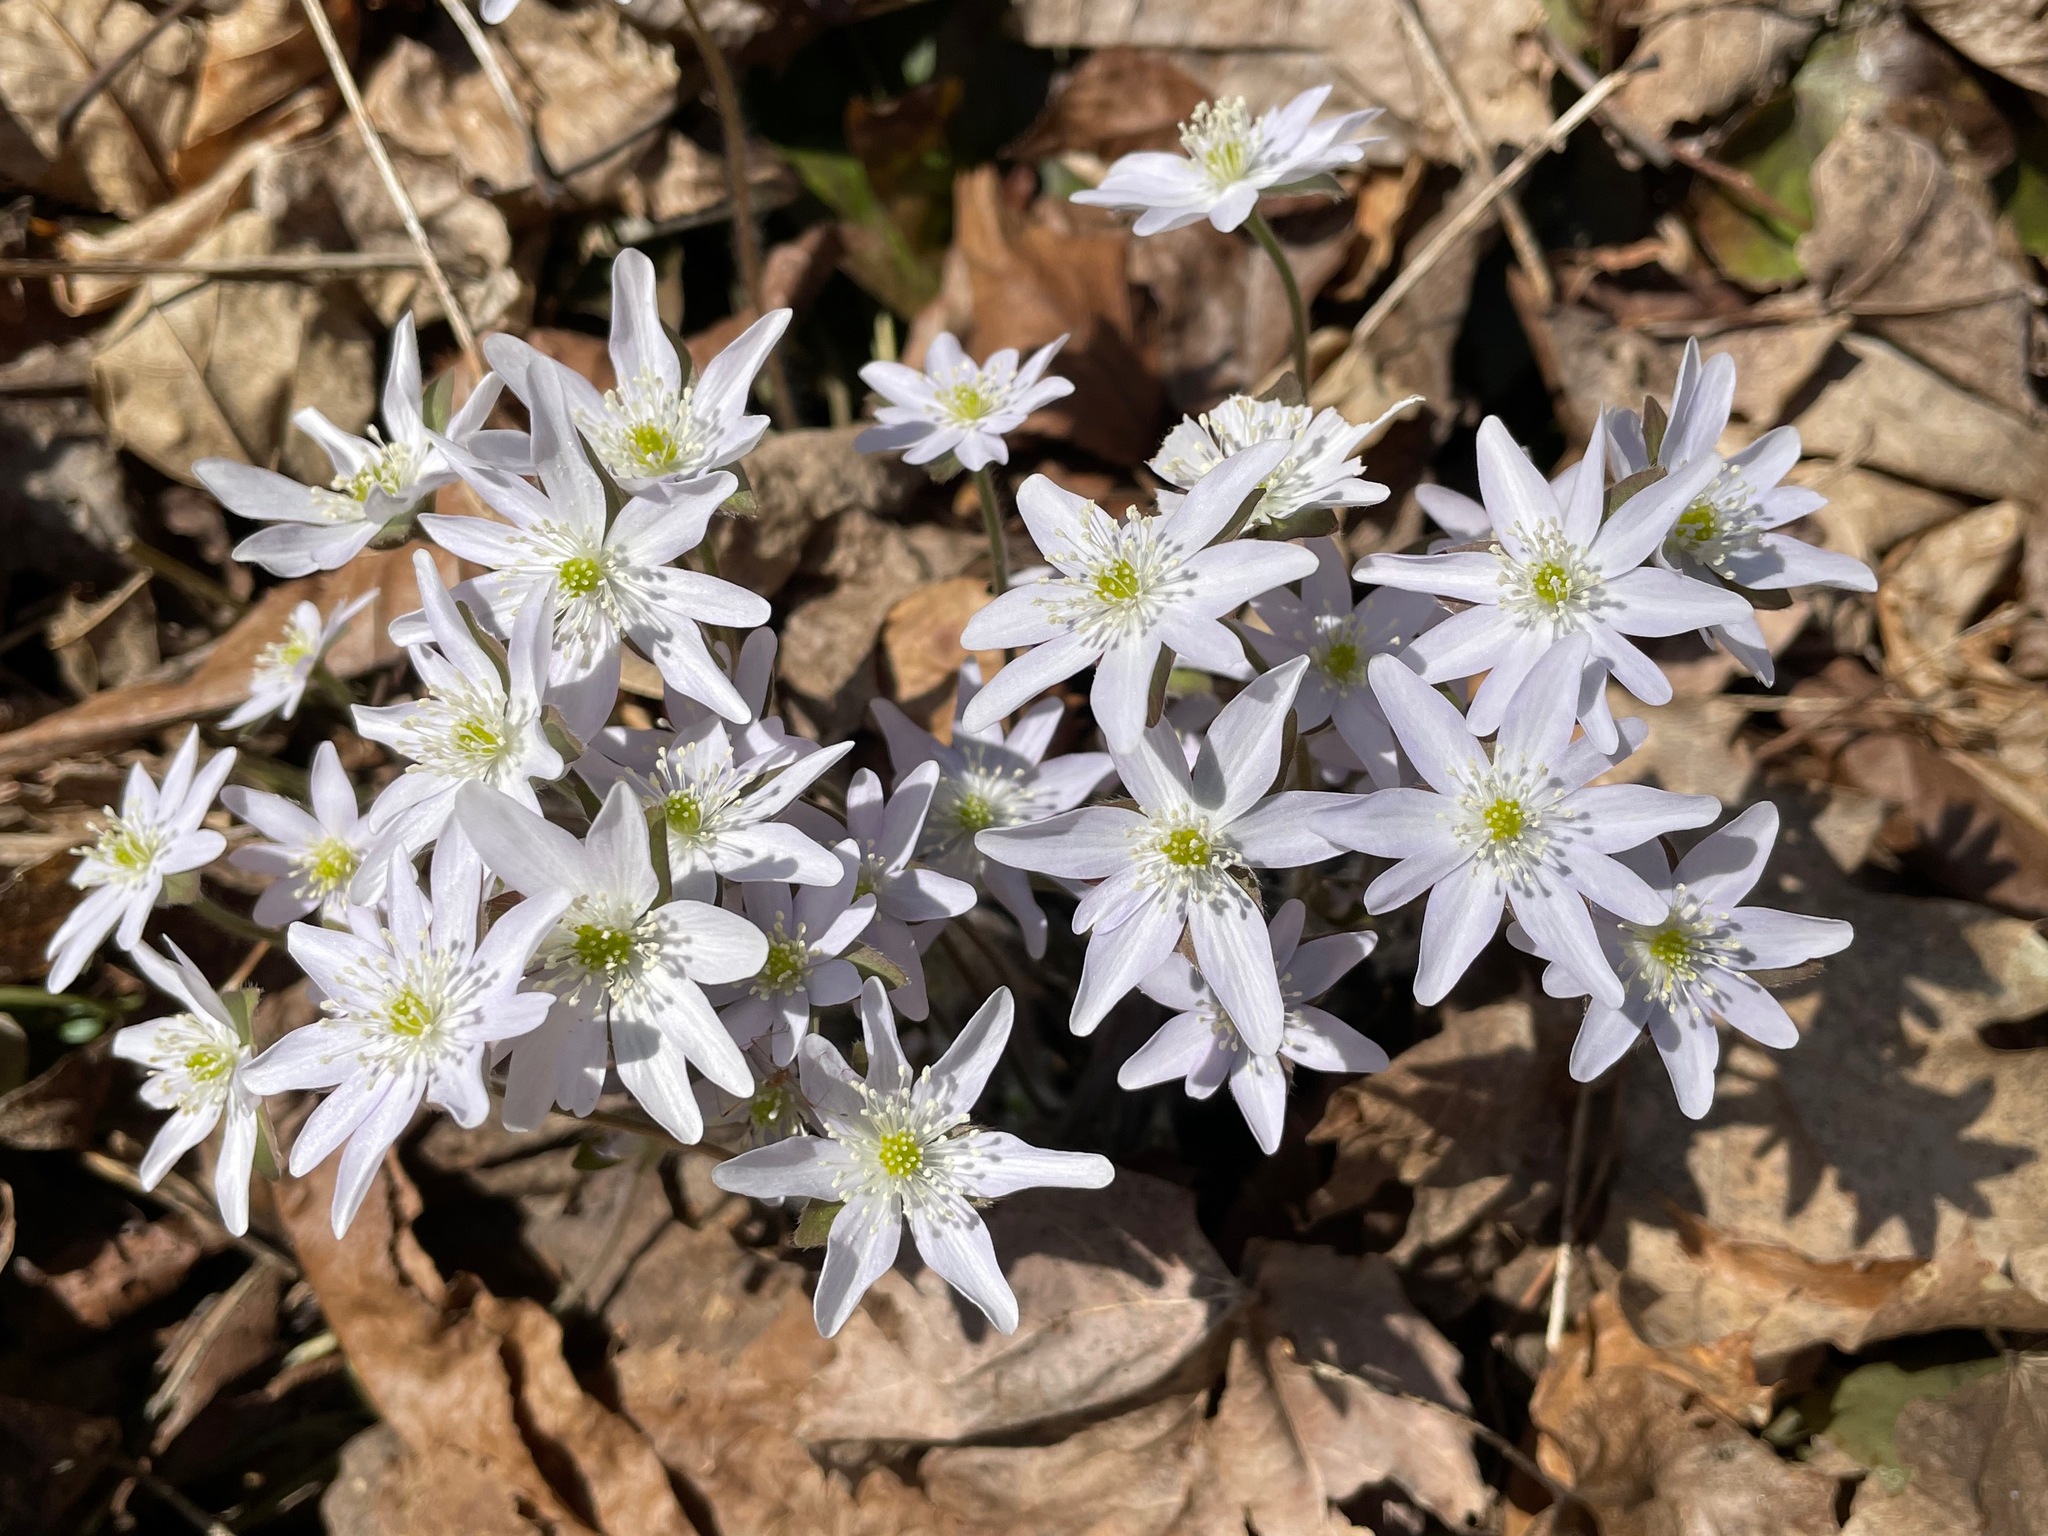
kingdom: Plantae
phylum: Tracheophyta
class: Magnoliopsida
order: Ranunculales
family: Ranunculaceae
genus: Hepatica
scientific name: Hepatica acutiloba
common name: Sharp-lobed hepatica
